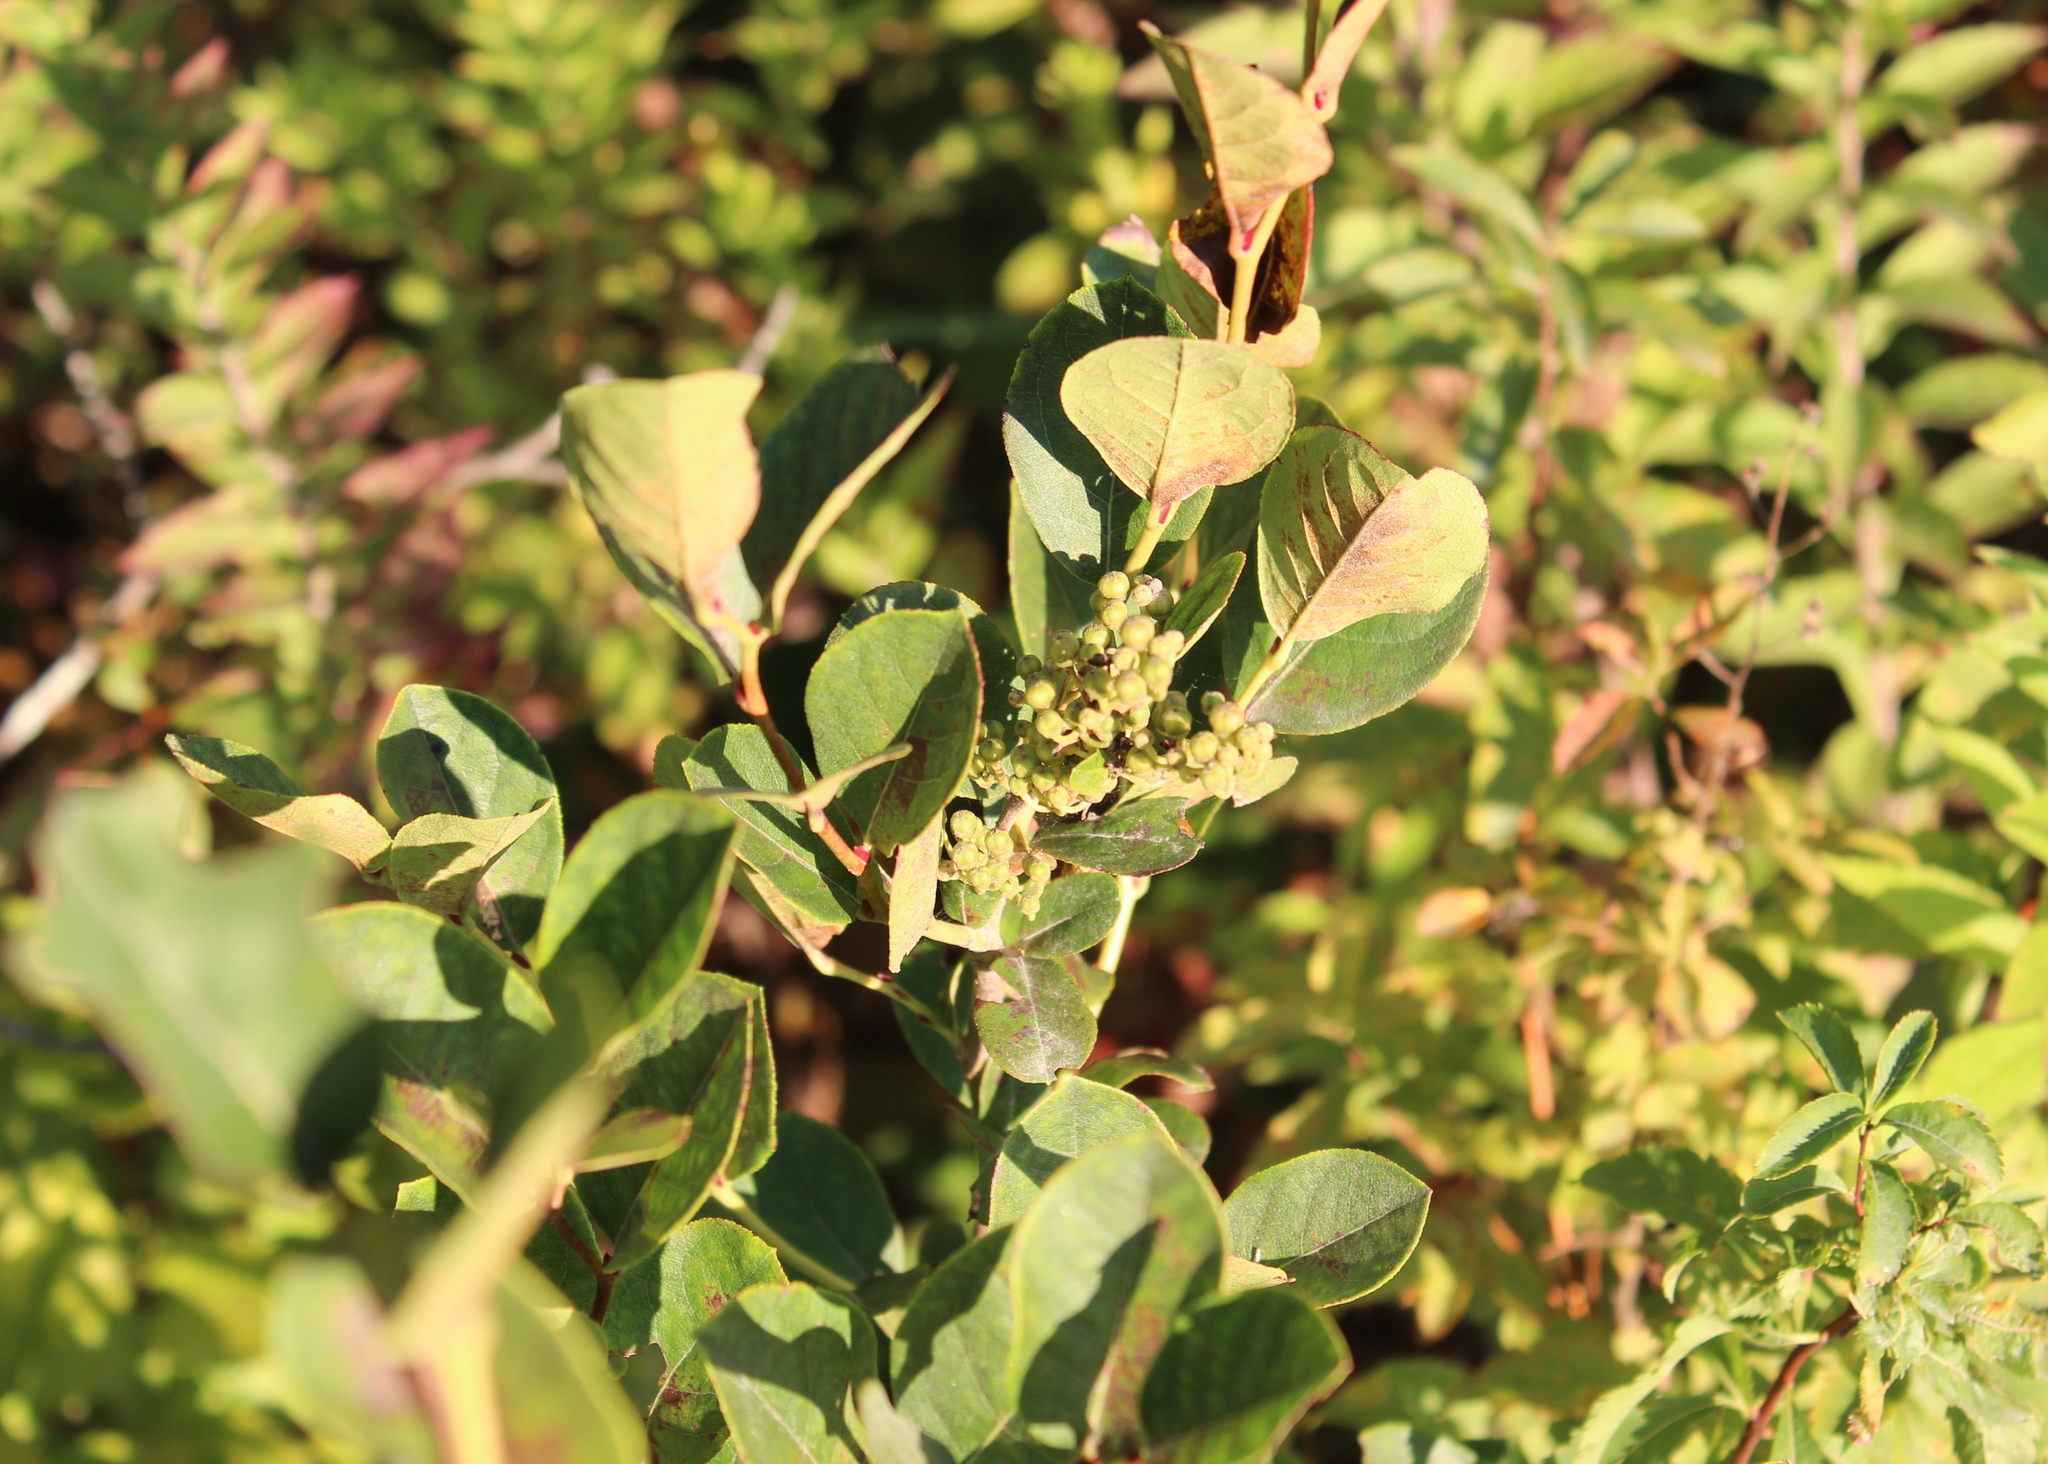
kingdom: Plantae
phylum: Tracheophyta
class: Magnoliopsida
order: Ericales
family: Ericaceae
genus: Lyonia
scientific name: Lyonia ligustrina
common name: Maleberry
